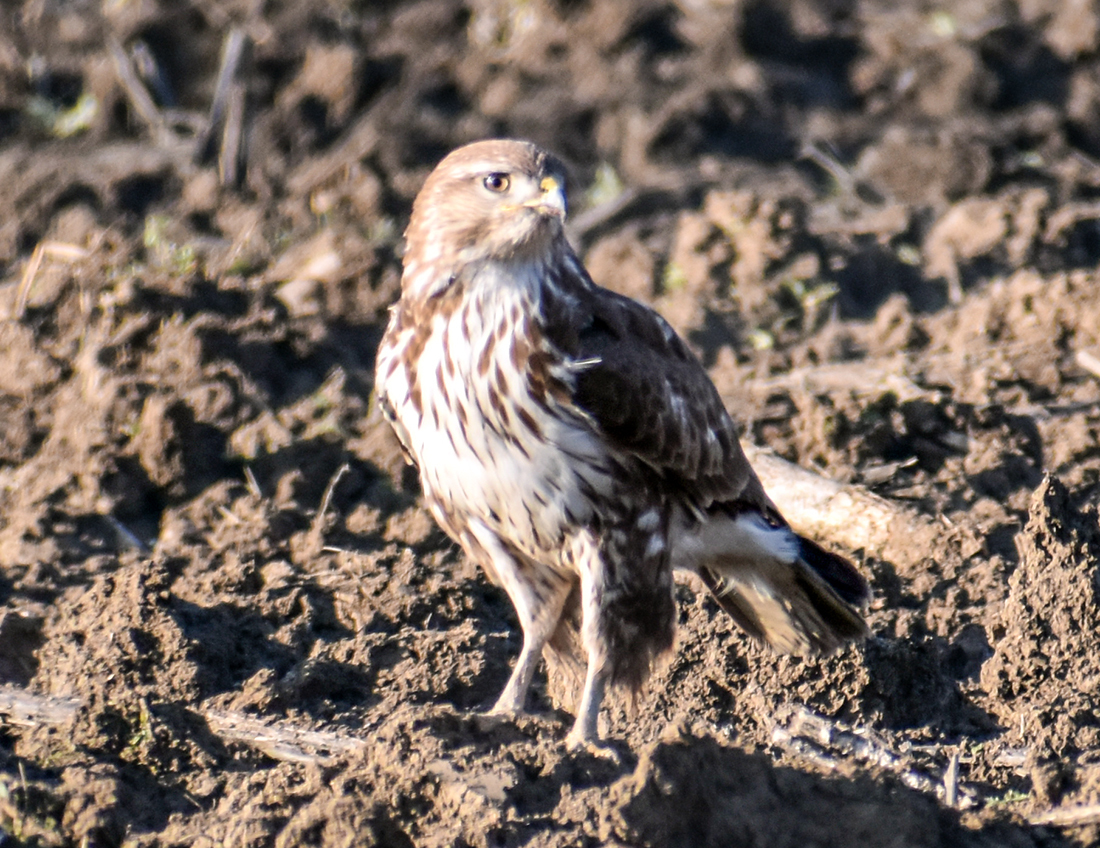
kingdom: Animalia
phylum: Chordata
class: Aves
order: Accipitriformes
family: Accipitridae
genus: Buteo
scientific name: Buteo buteo
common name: Common buzzard
